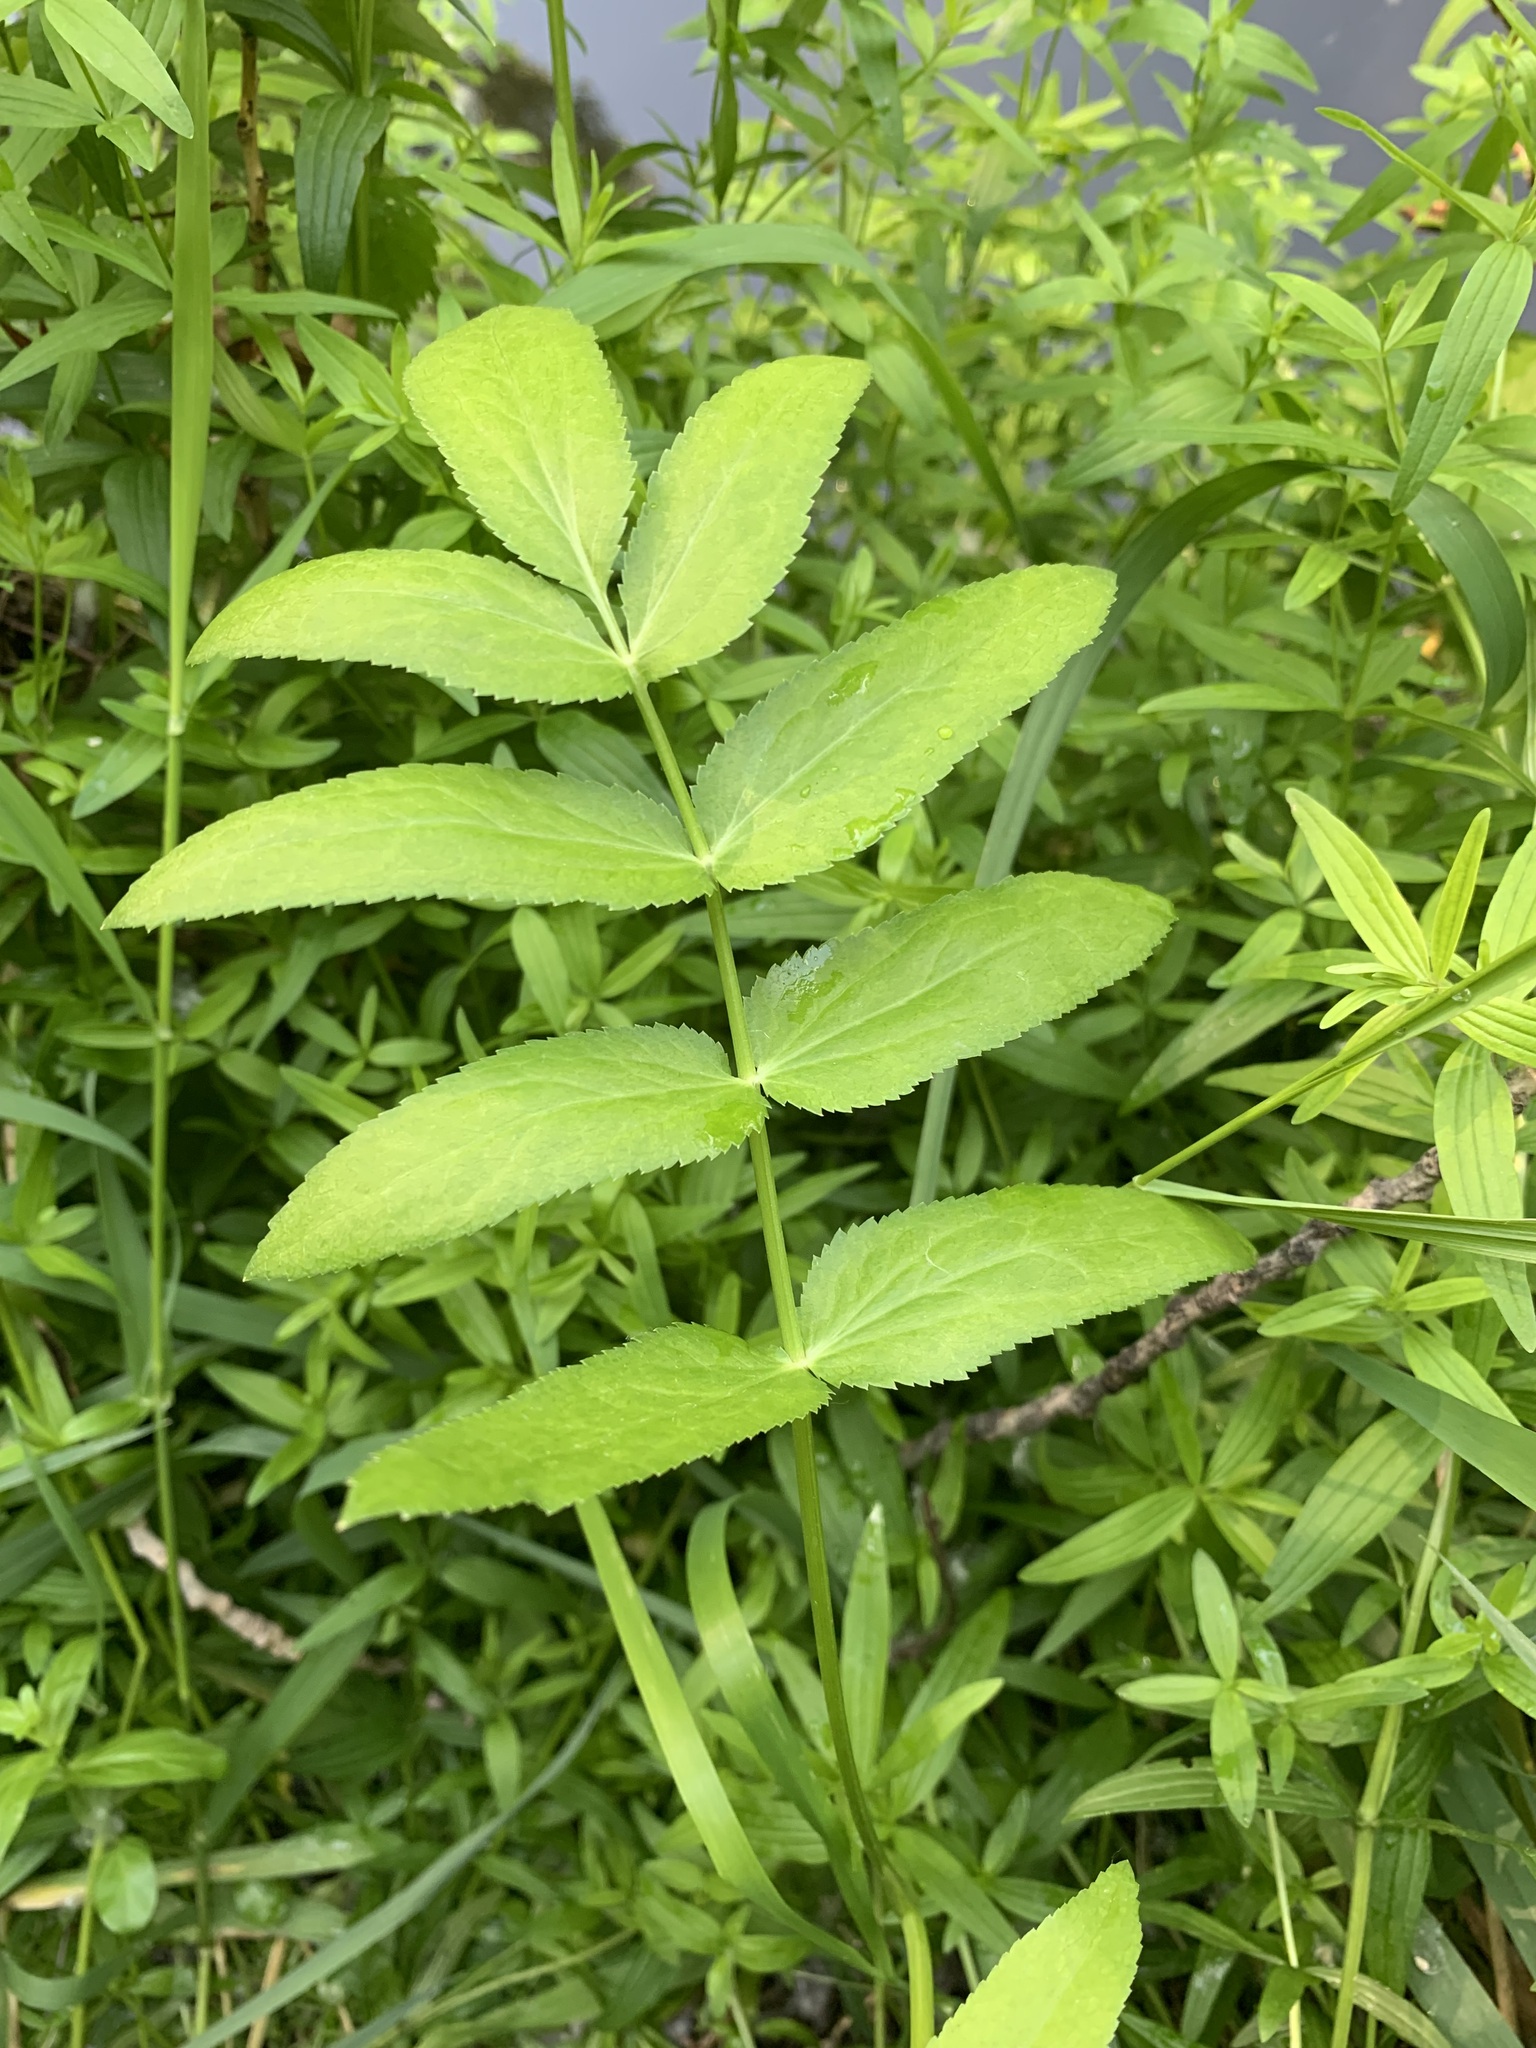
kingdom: Plantae
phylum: Tracheophyta
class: Magnoliopsida
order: Apiales
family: Apiaceae
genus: Sium
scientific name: Sium latifolium
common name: Greater water-parsnip
